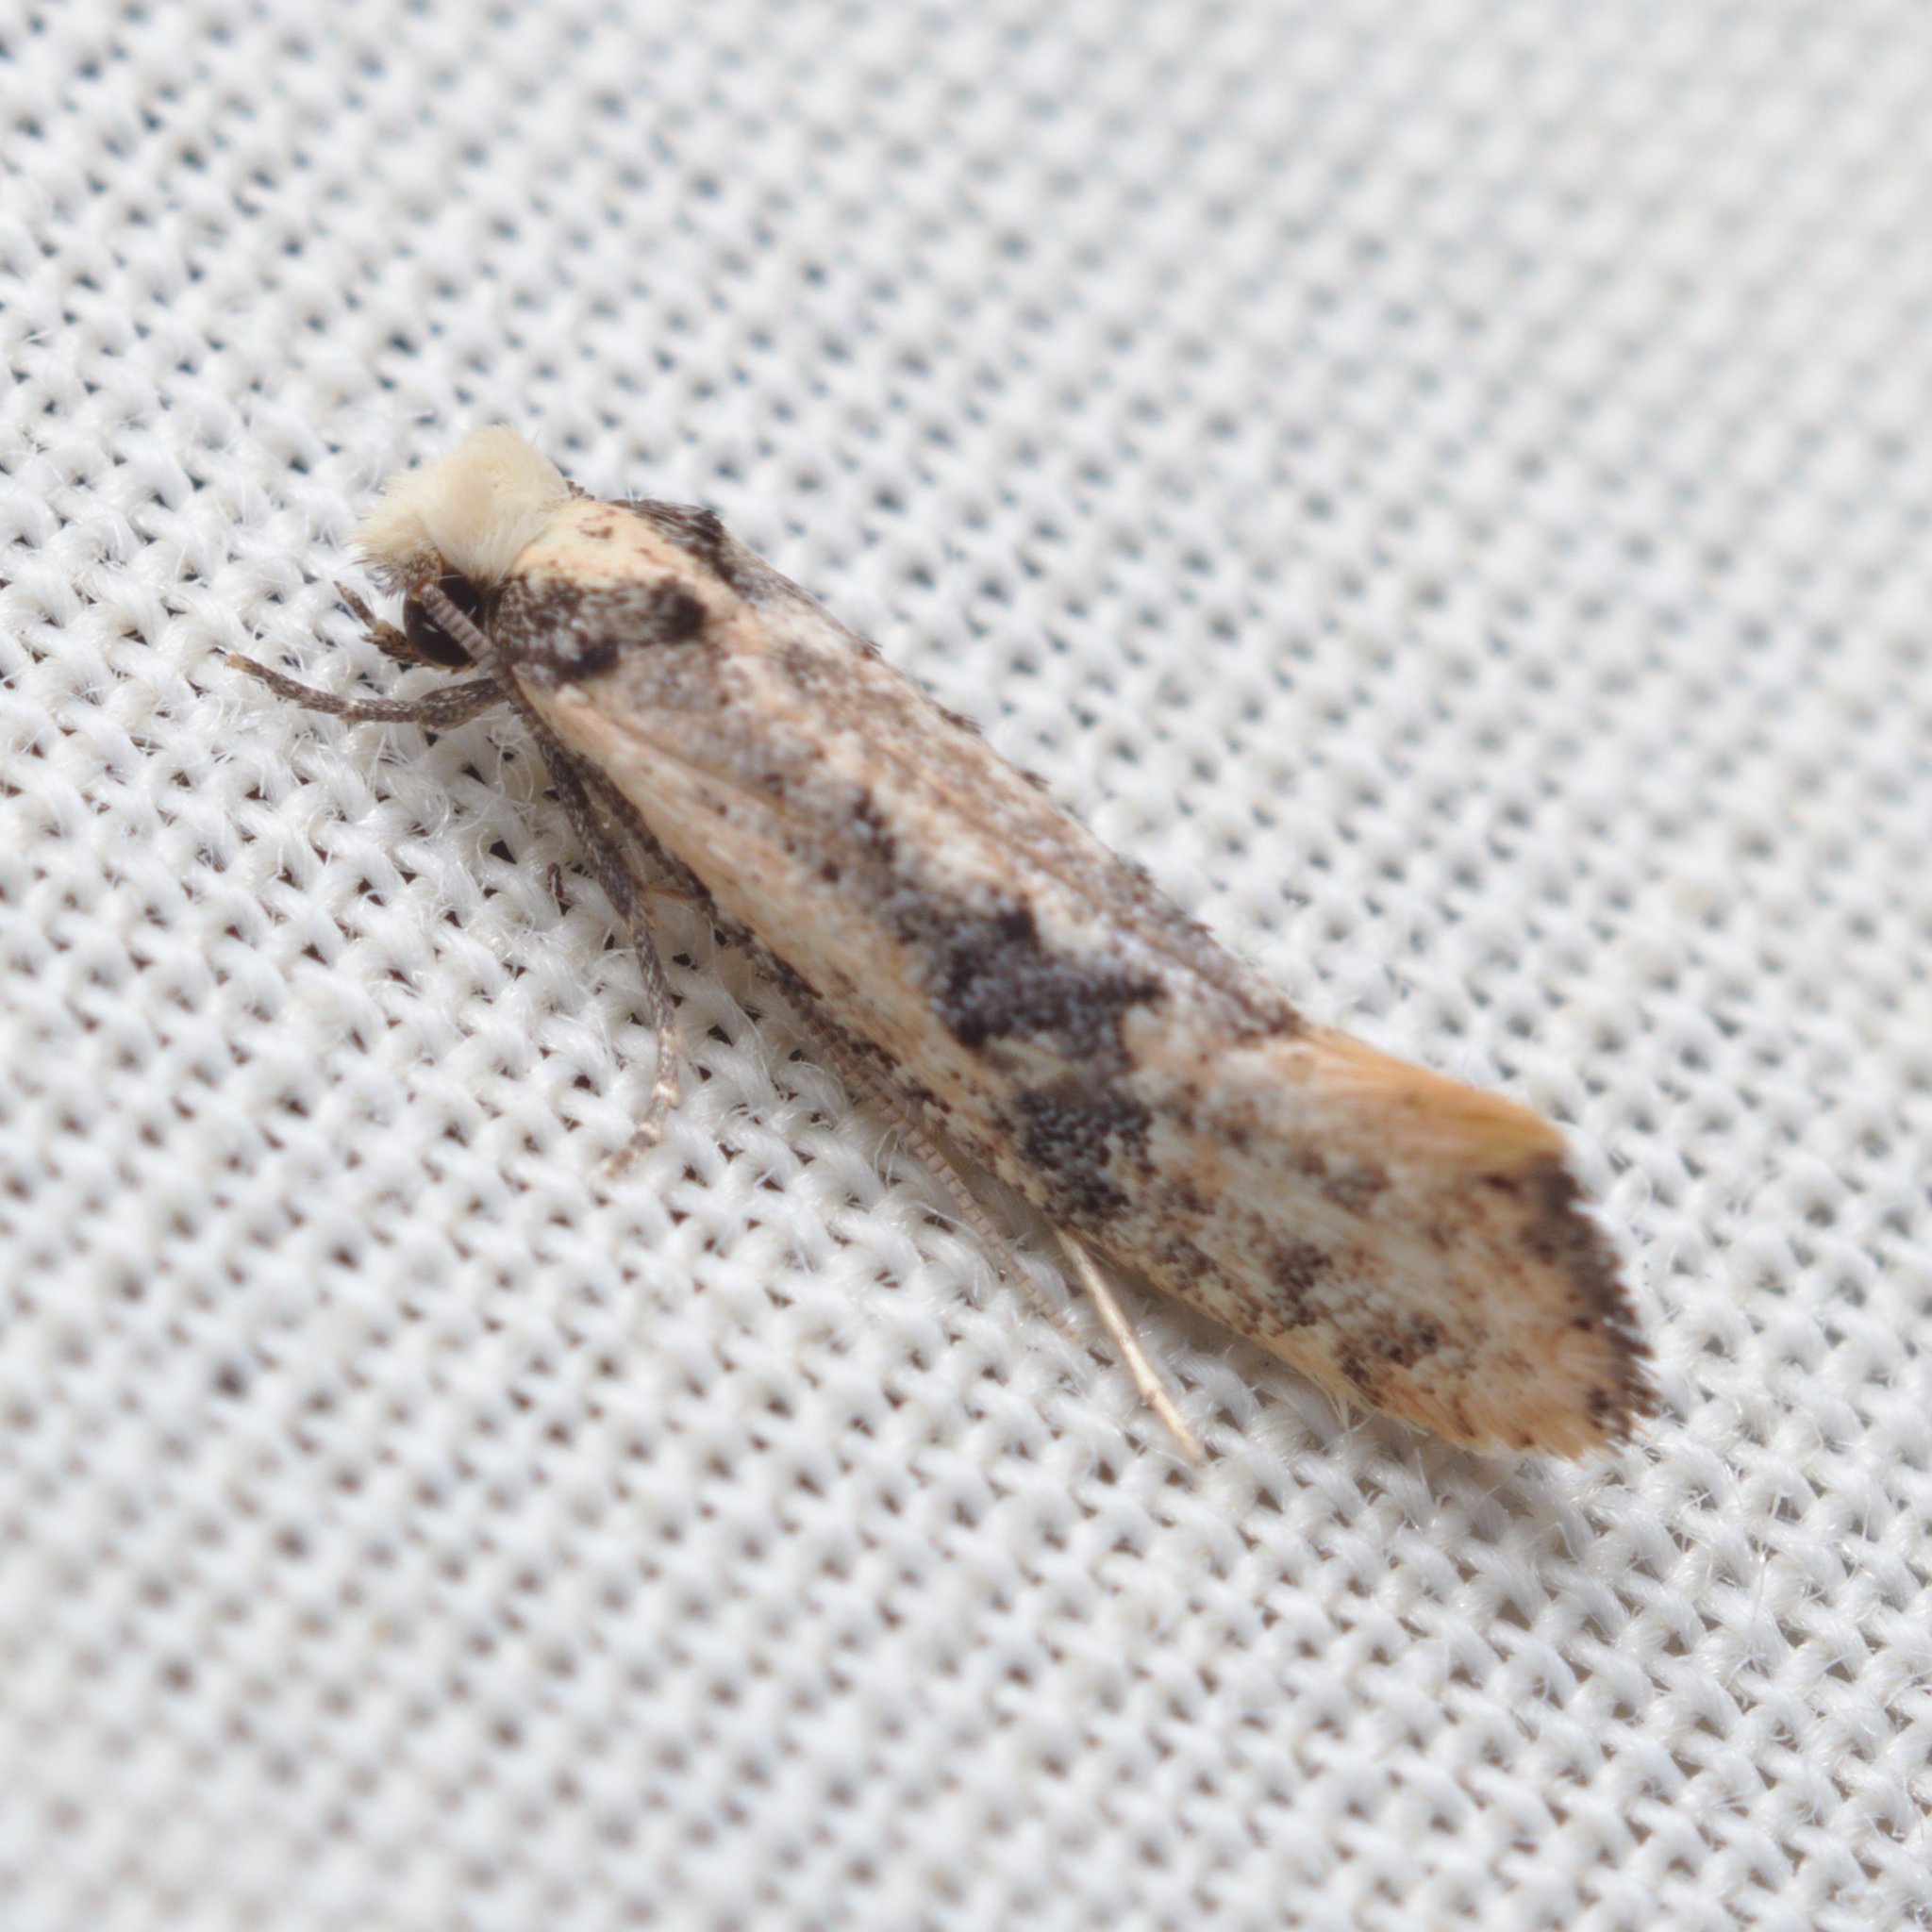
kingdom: Animalia
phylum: Arthropoda
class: Insecta
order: Lepidoptera
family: Tineidae
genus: Monopis
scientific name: Monopis argillacea
